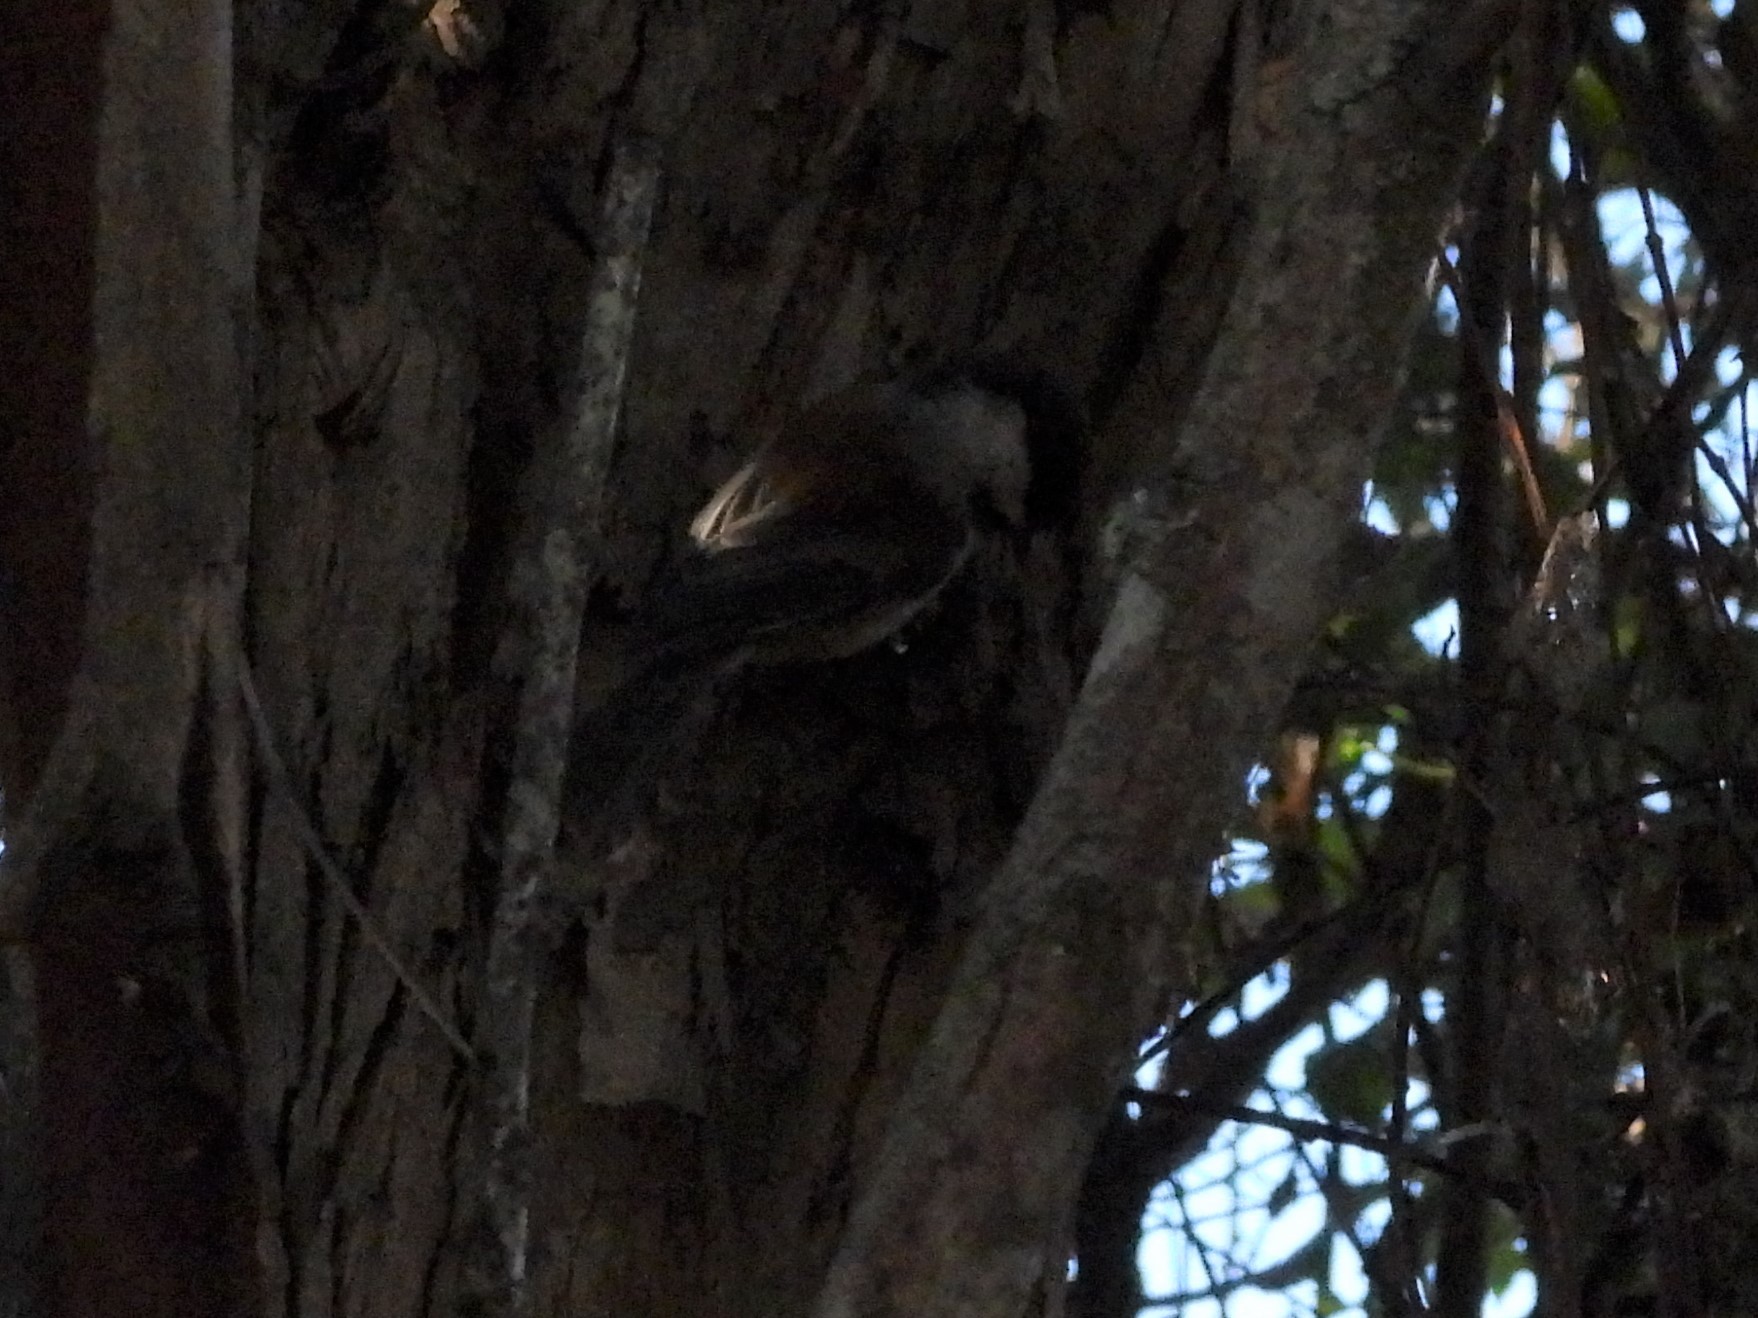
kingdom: Animalia
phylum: Chordata
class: Aves
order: Passeriformes
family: Paridae
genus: Poecile
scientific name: Poecile rufescens
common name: Chestnut-backed chickadee
